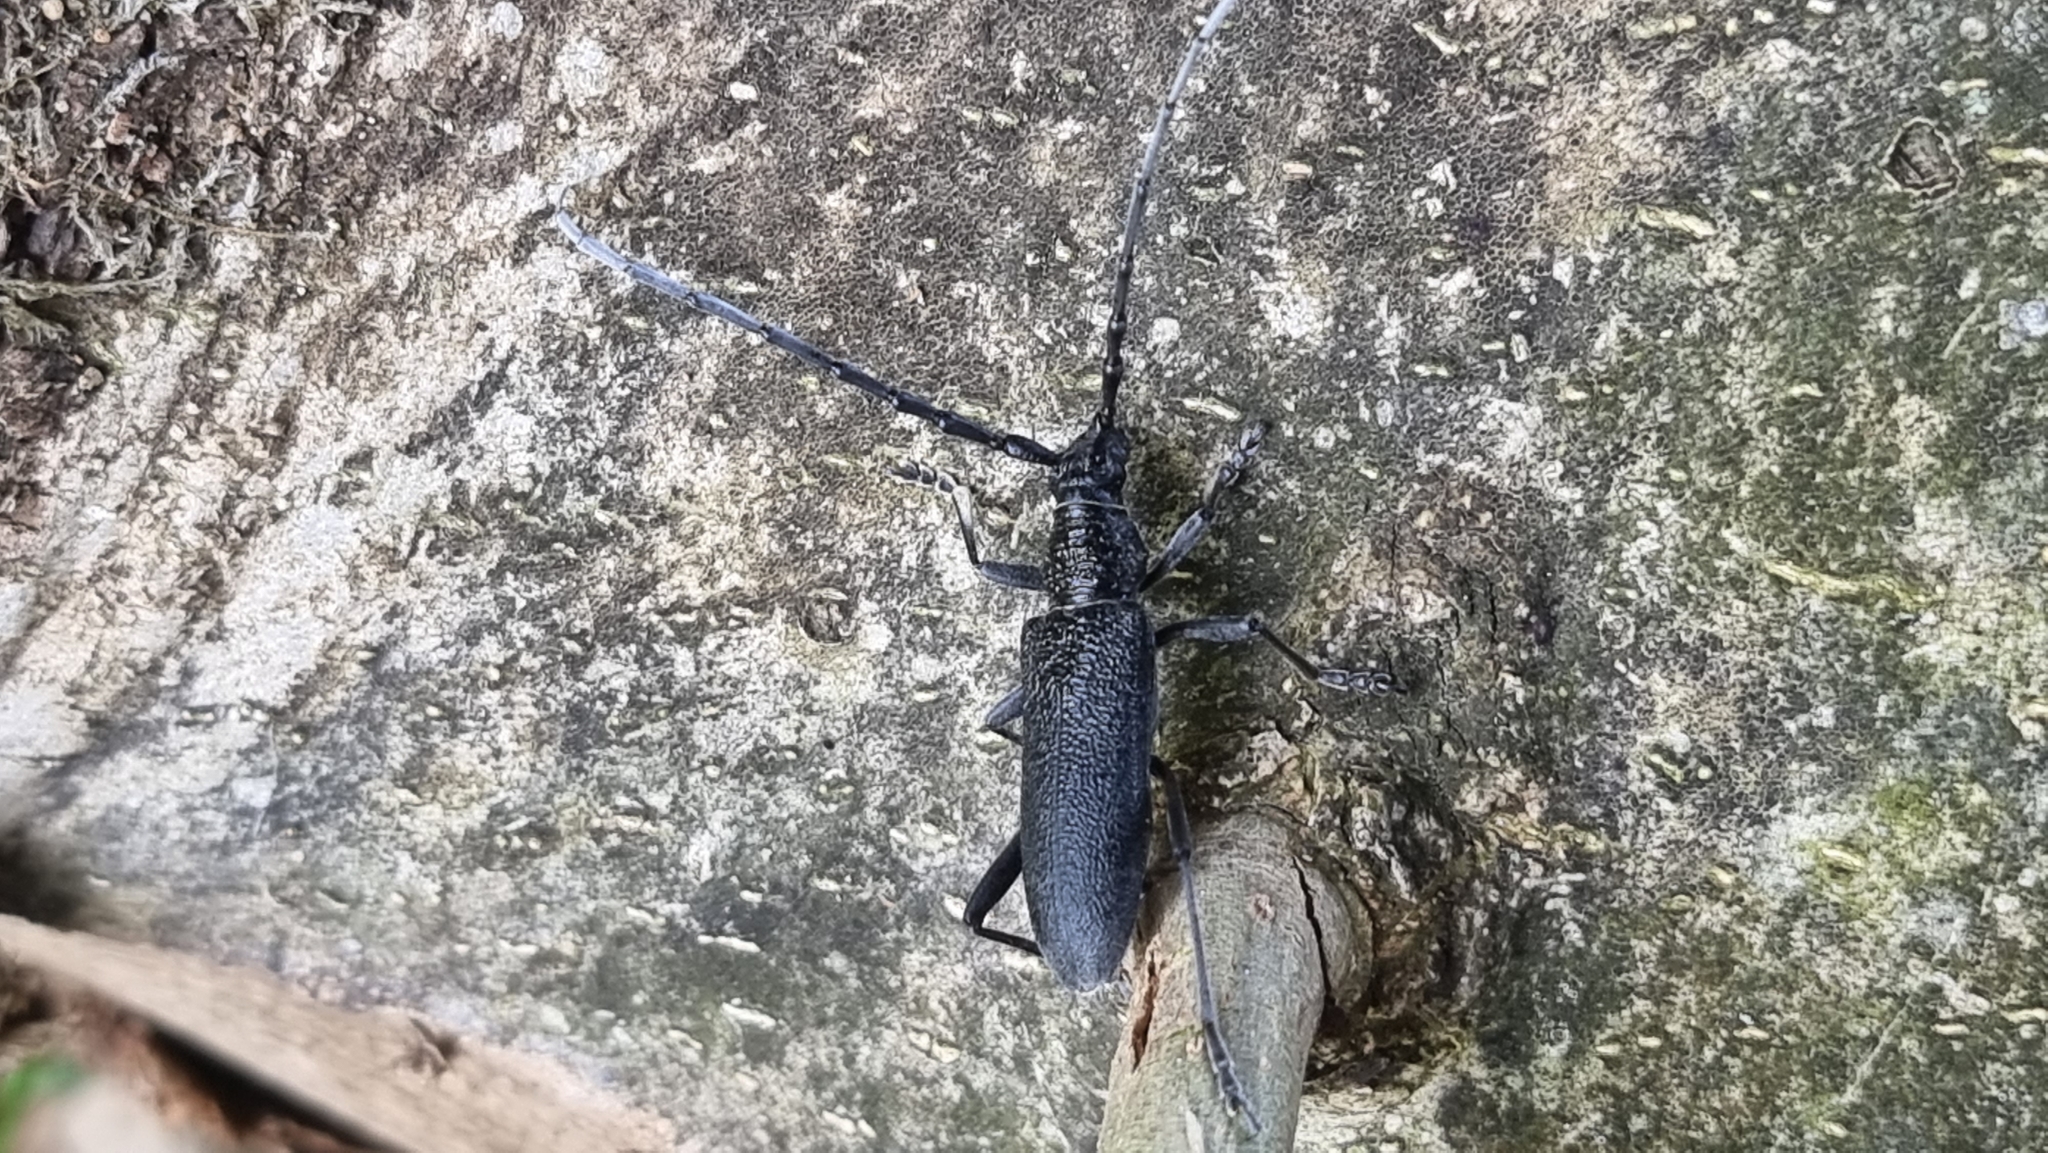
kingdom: Animalia
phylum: Arthropoda
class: Insecta
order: Coleoptera
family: Cerambycidae
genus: Cerambyx
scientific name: Cerambyx scopolii
